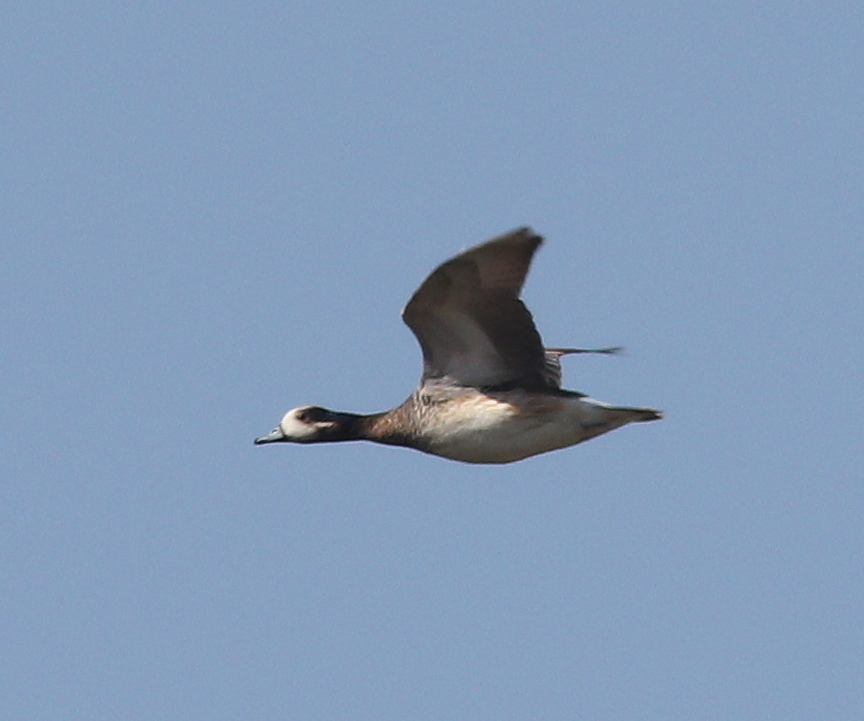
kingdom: Animalia
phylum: Chordata
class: Aves
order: Anseriformes
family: Anatidae
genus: Mareca
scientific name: Mareca sibilatrix
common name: Chiloe wigeon
